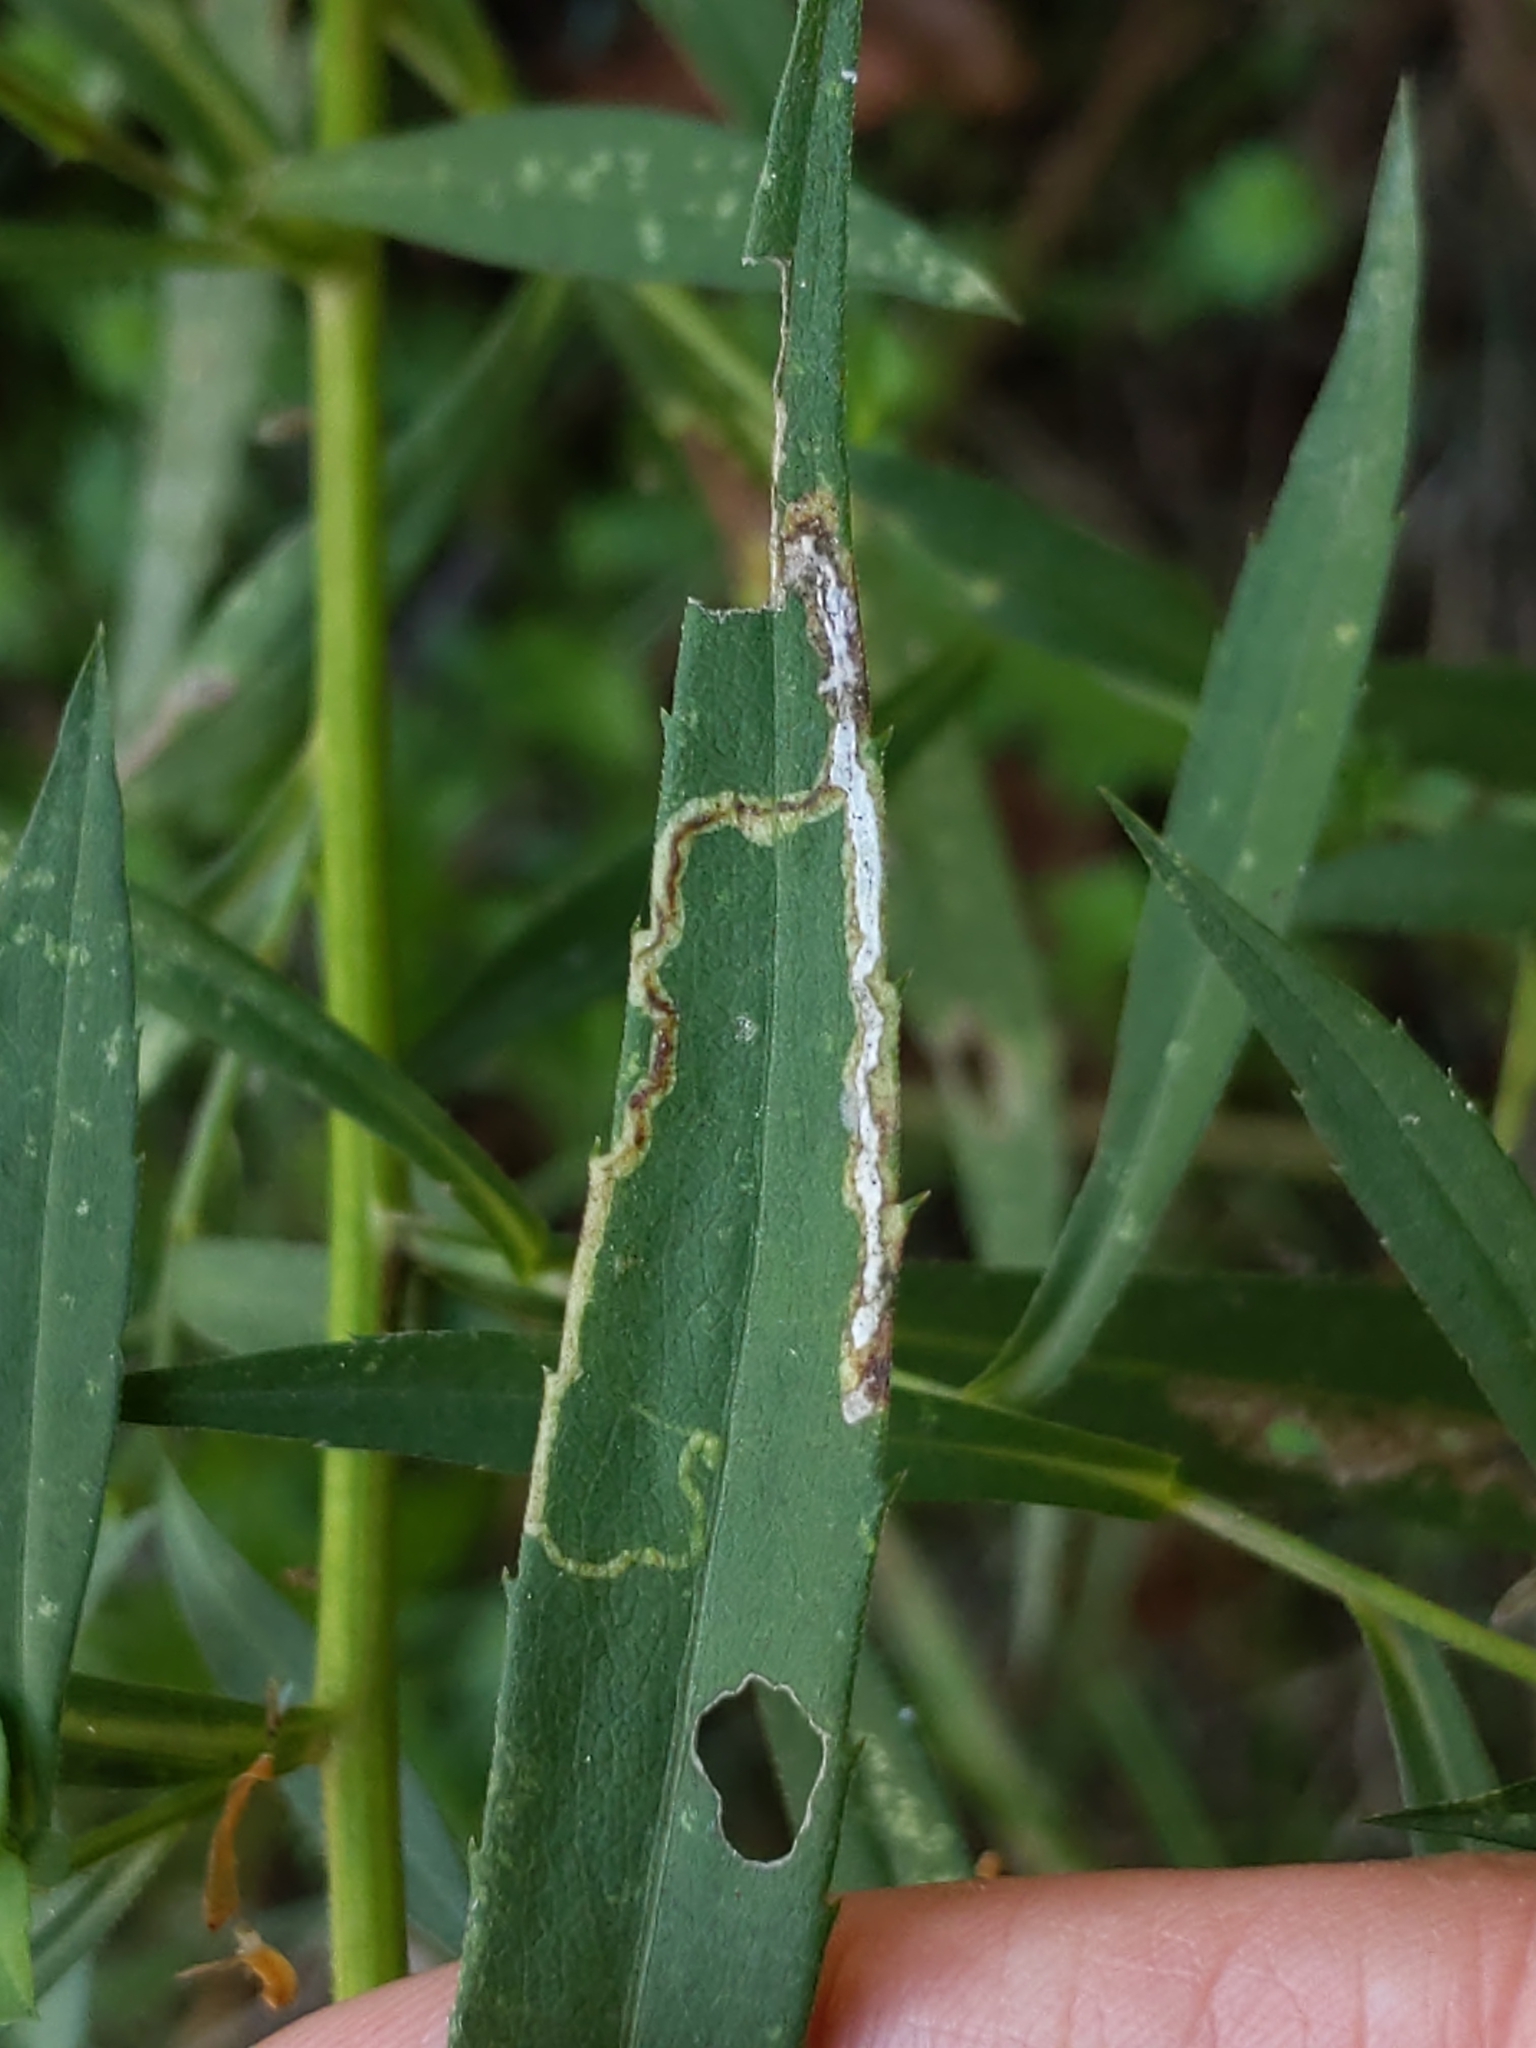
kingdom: Animalia
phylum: Arthropoda
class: Insecta
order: Diptera
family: Agromyzidae
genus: Liriomyza
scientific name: Liriomyza eupatorii
